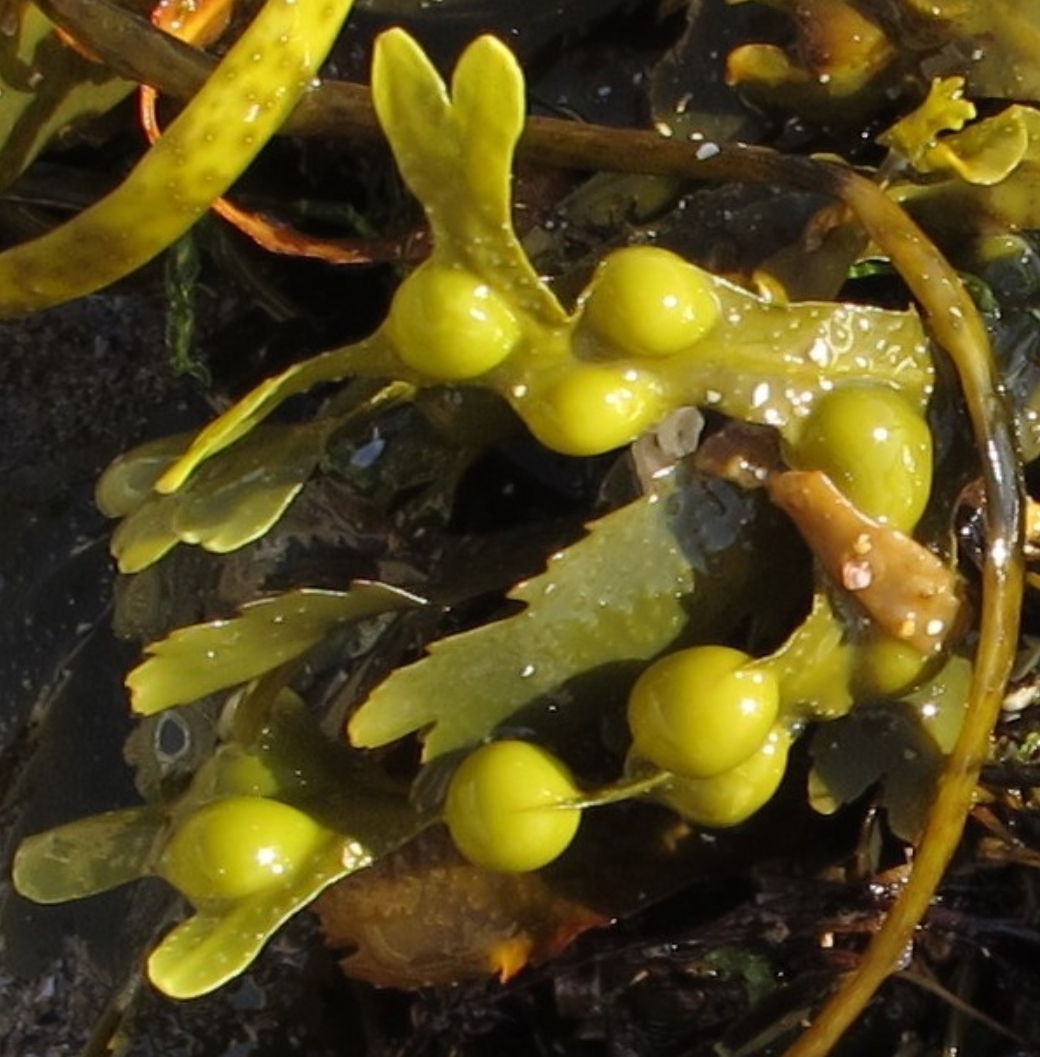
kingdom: Chromista
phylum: Ochrophyta
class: Phaeophyceae
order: Fucales
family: Fucaceae
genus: Fucus
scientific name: Fucus vesiculosus
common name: Bladder wrack
